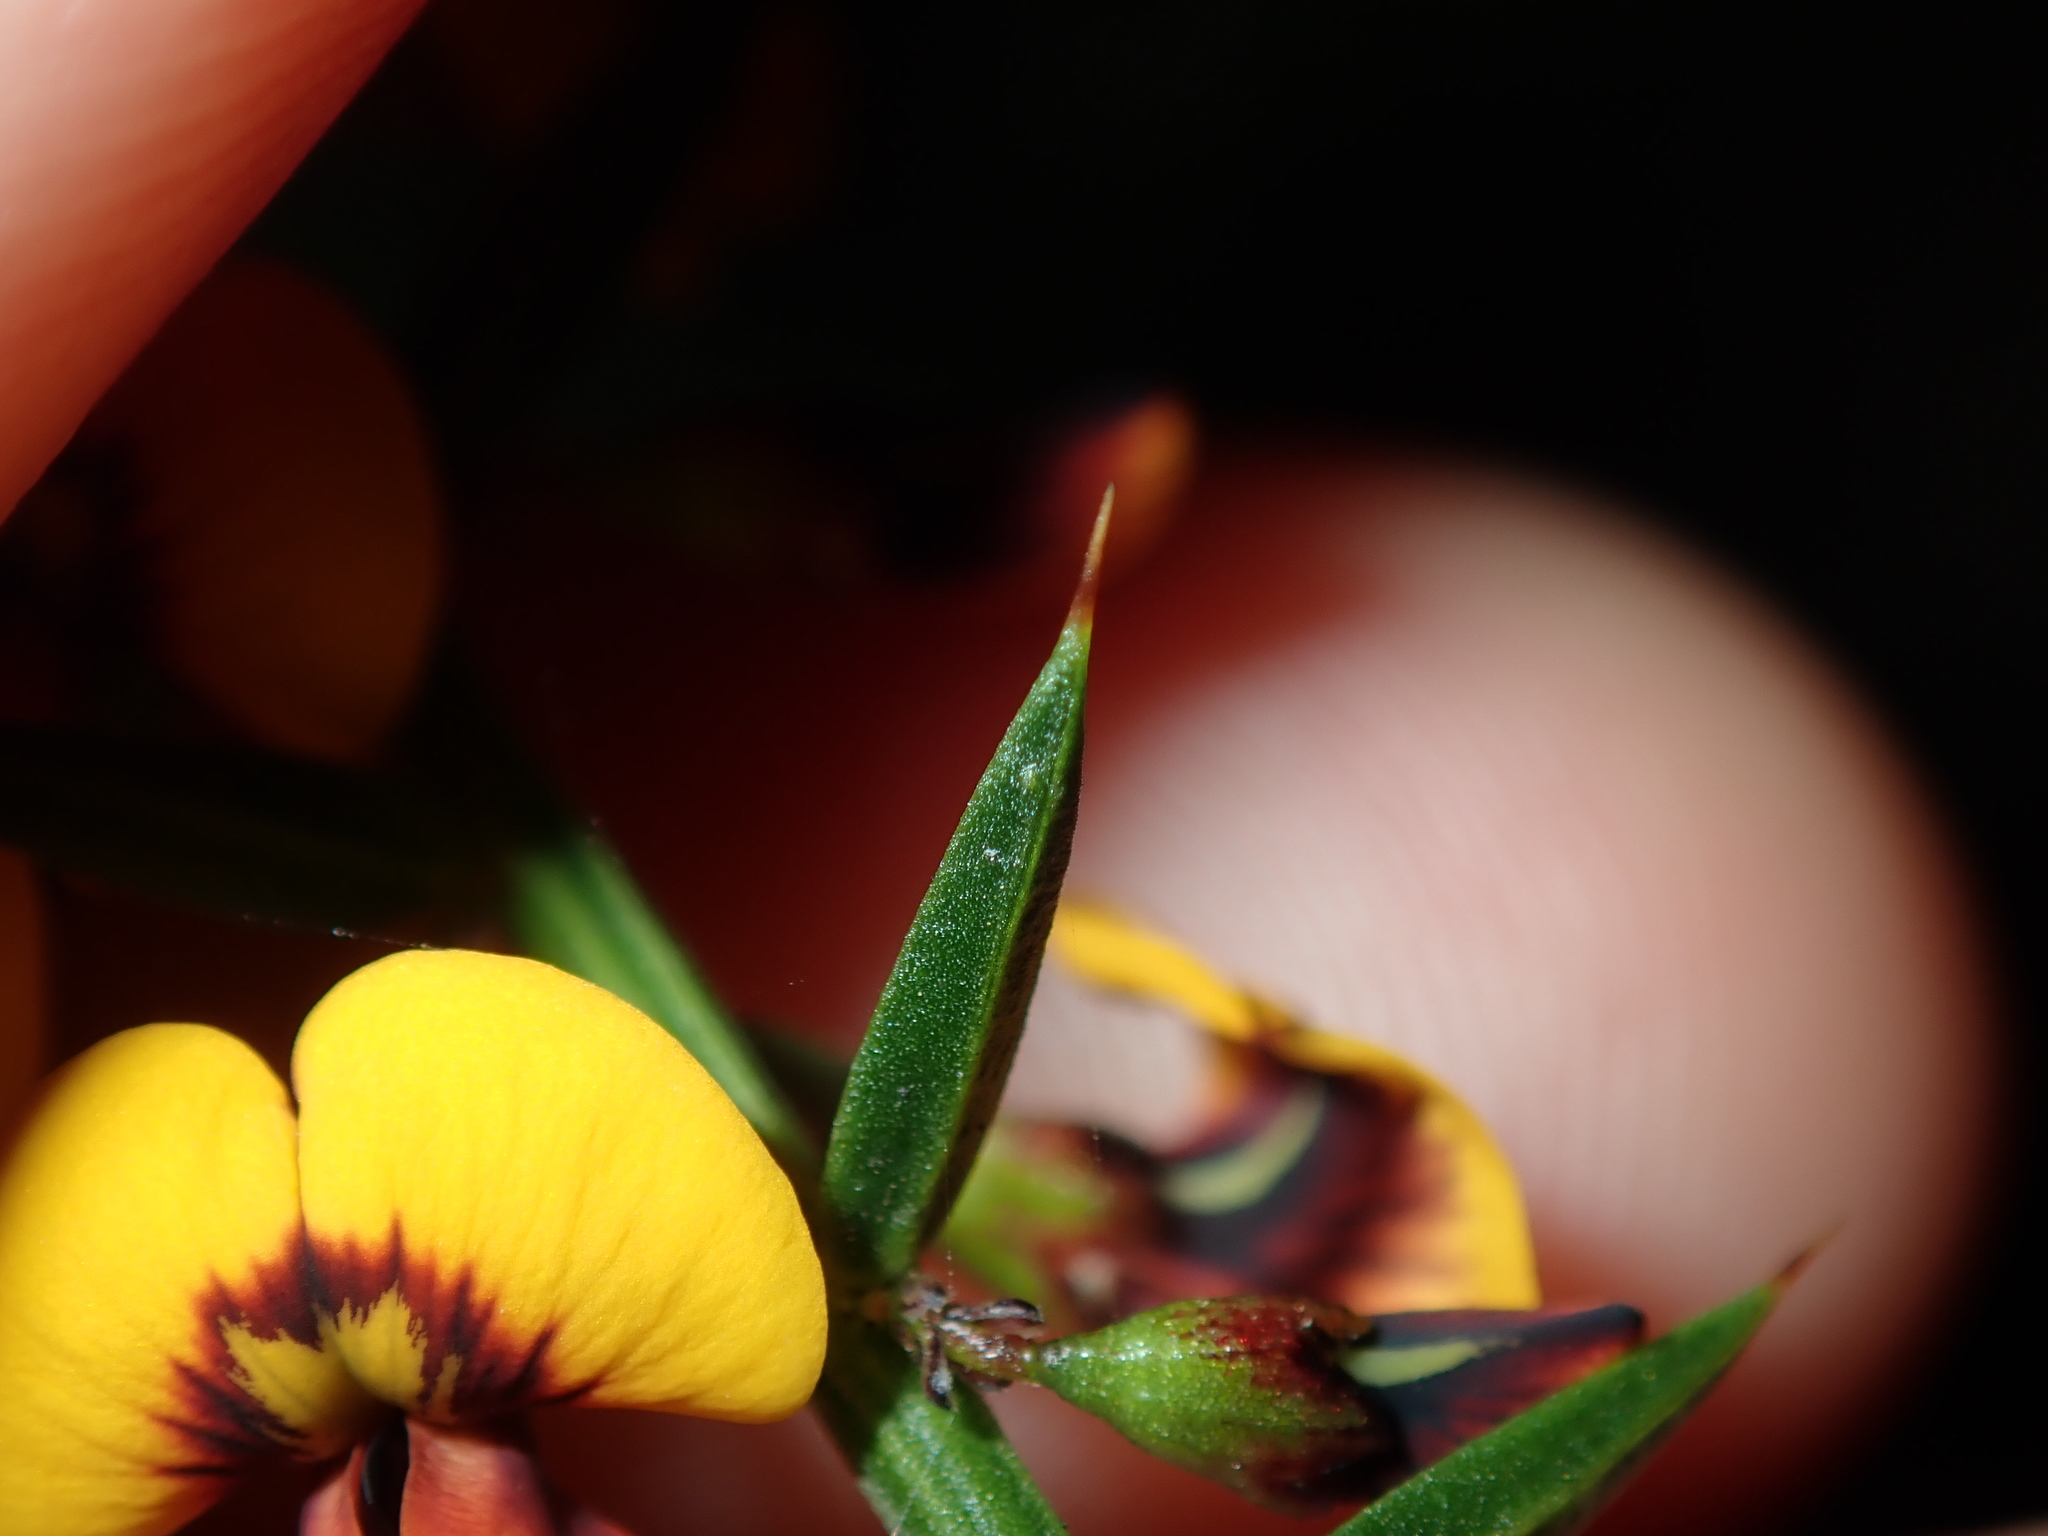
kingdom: Plantae
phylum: Tracheophyta
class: Magnoliopsida
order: Fabales
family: Fabaceae
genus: Daviesia
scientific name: Daviesia ulicifolia
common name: Gorse bitter-pea
